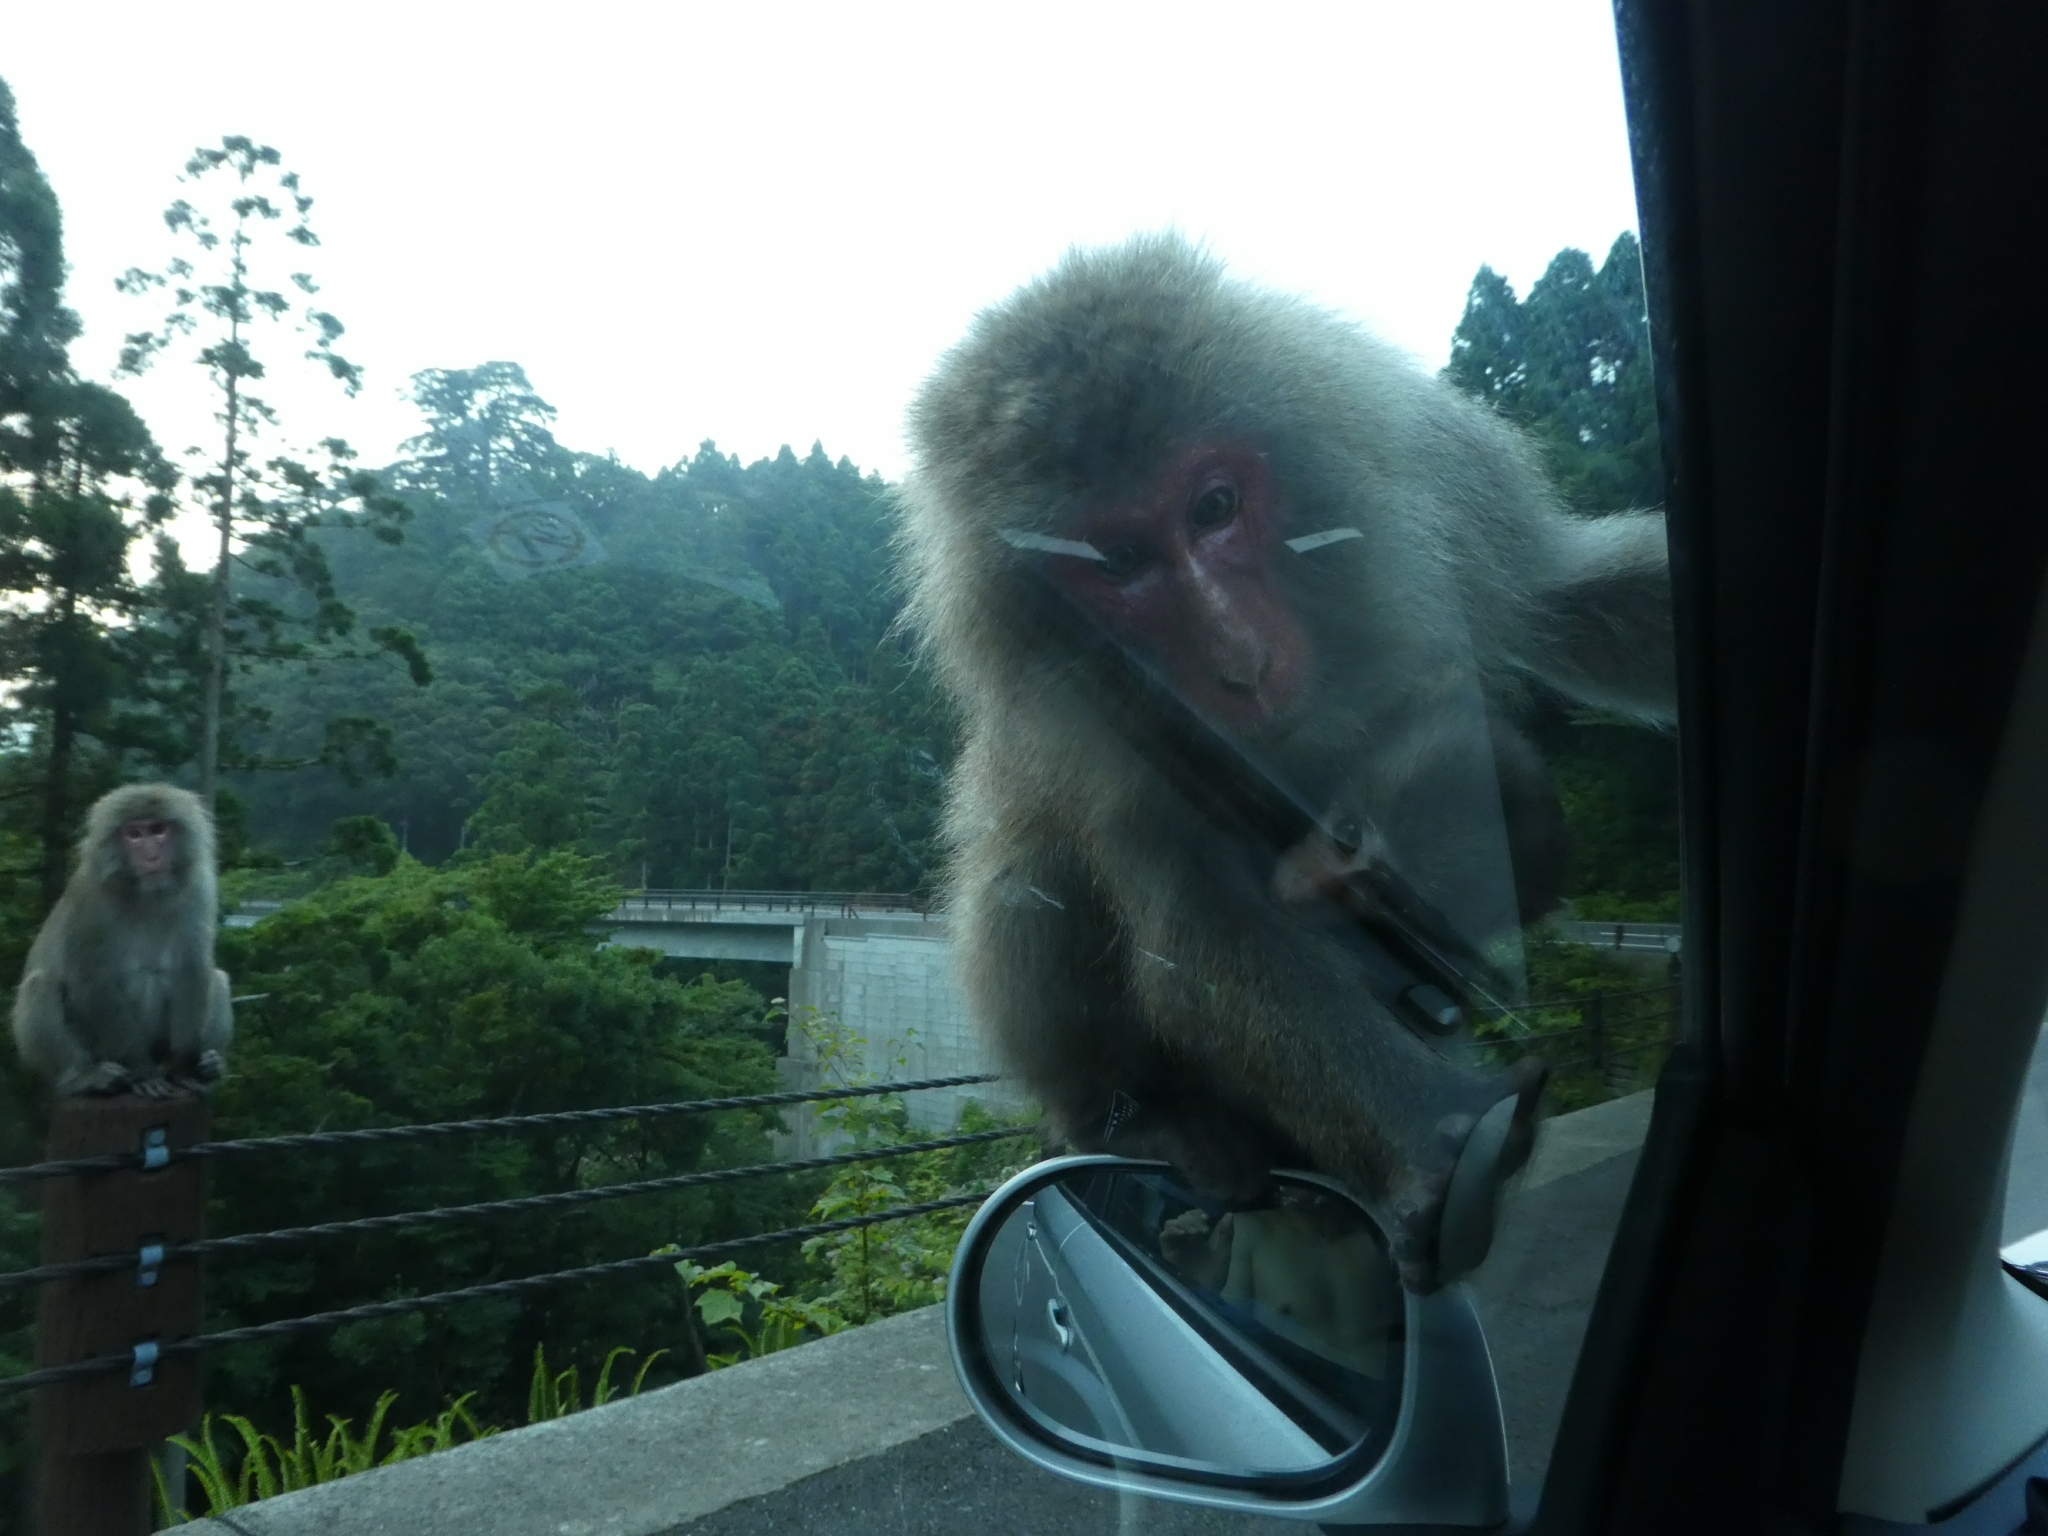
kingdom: Animalia
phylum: Chordata
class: Mammalia
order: Primates
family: Cercopithecidae
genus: Macaca
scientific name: Macaca fuscata
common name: Japanese macaque
